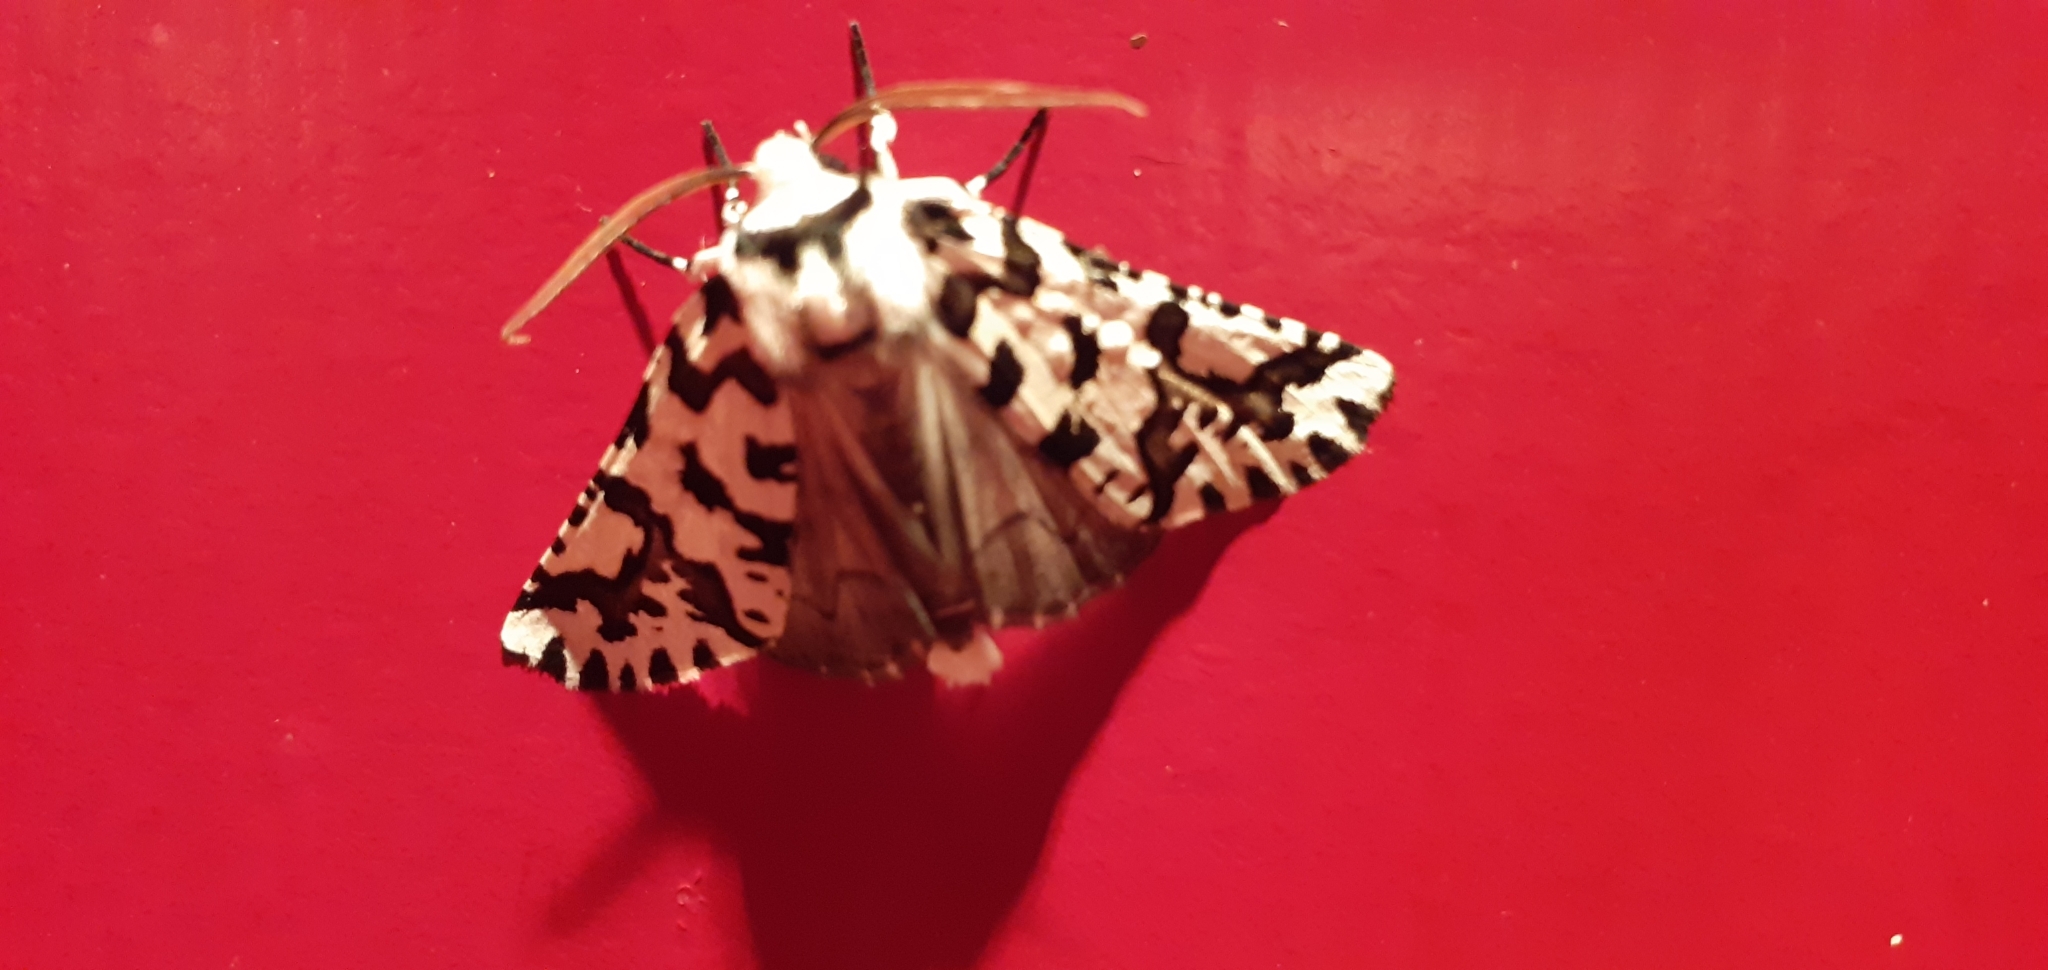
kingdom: Animalia
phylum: Arthropoda
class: Insecta
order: Lepidoptera
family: Geometridae
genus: Declana
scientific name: Declana
